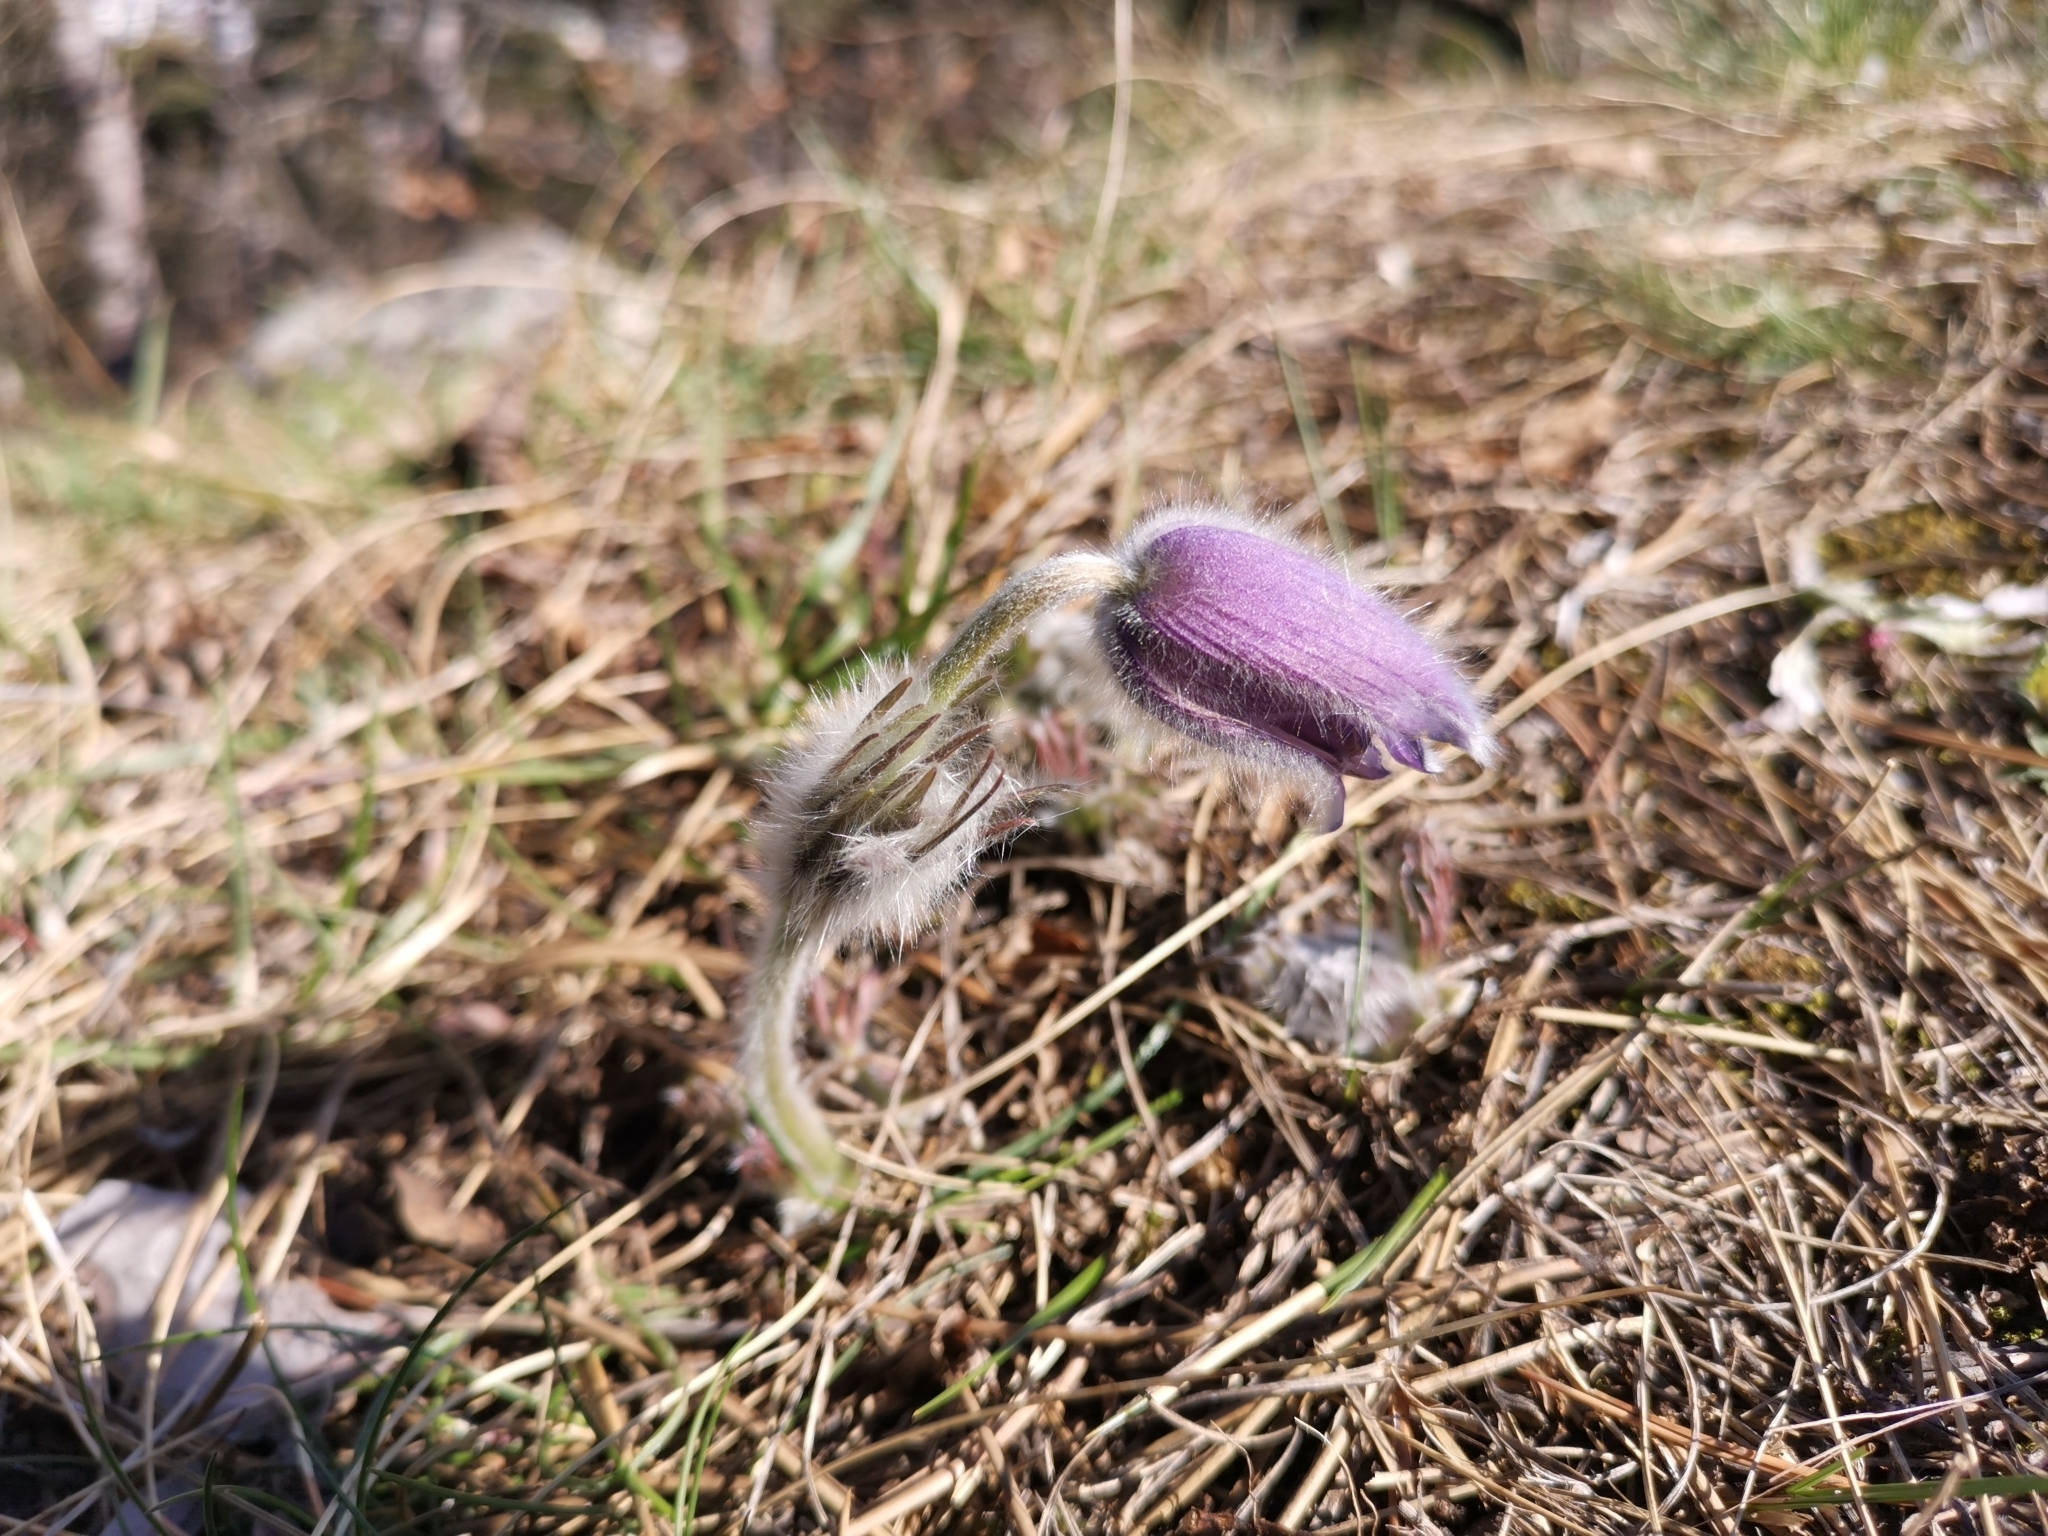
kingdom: Plantae
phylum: Tracheophyta
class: Magnoliopsida
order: Ranunculales
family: Ranunculaceae
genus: Pulsatilla
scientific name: Pulsatilla grandis
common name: Greater pasque flower
